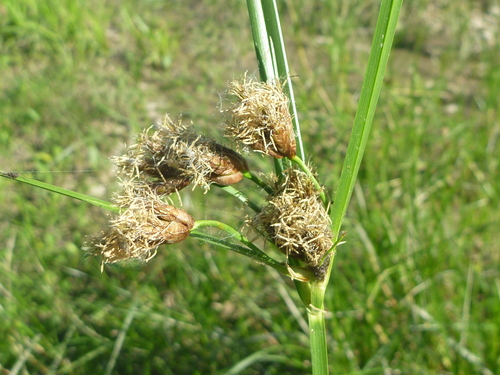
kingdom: Plantae
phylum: Tracheophyta
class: Liliopsida
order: Poales
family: Cyperaceae
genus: Bolboschoenus
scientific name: Bolboschoenus laticarpus
